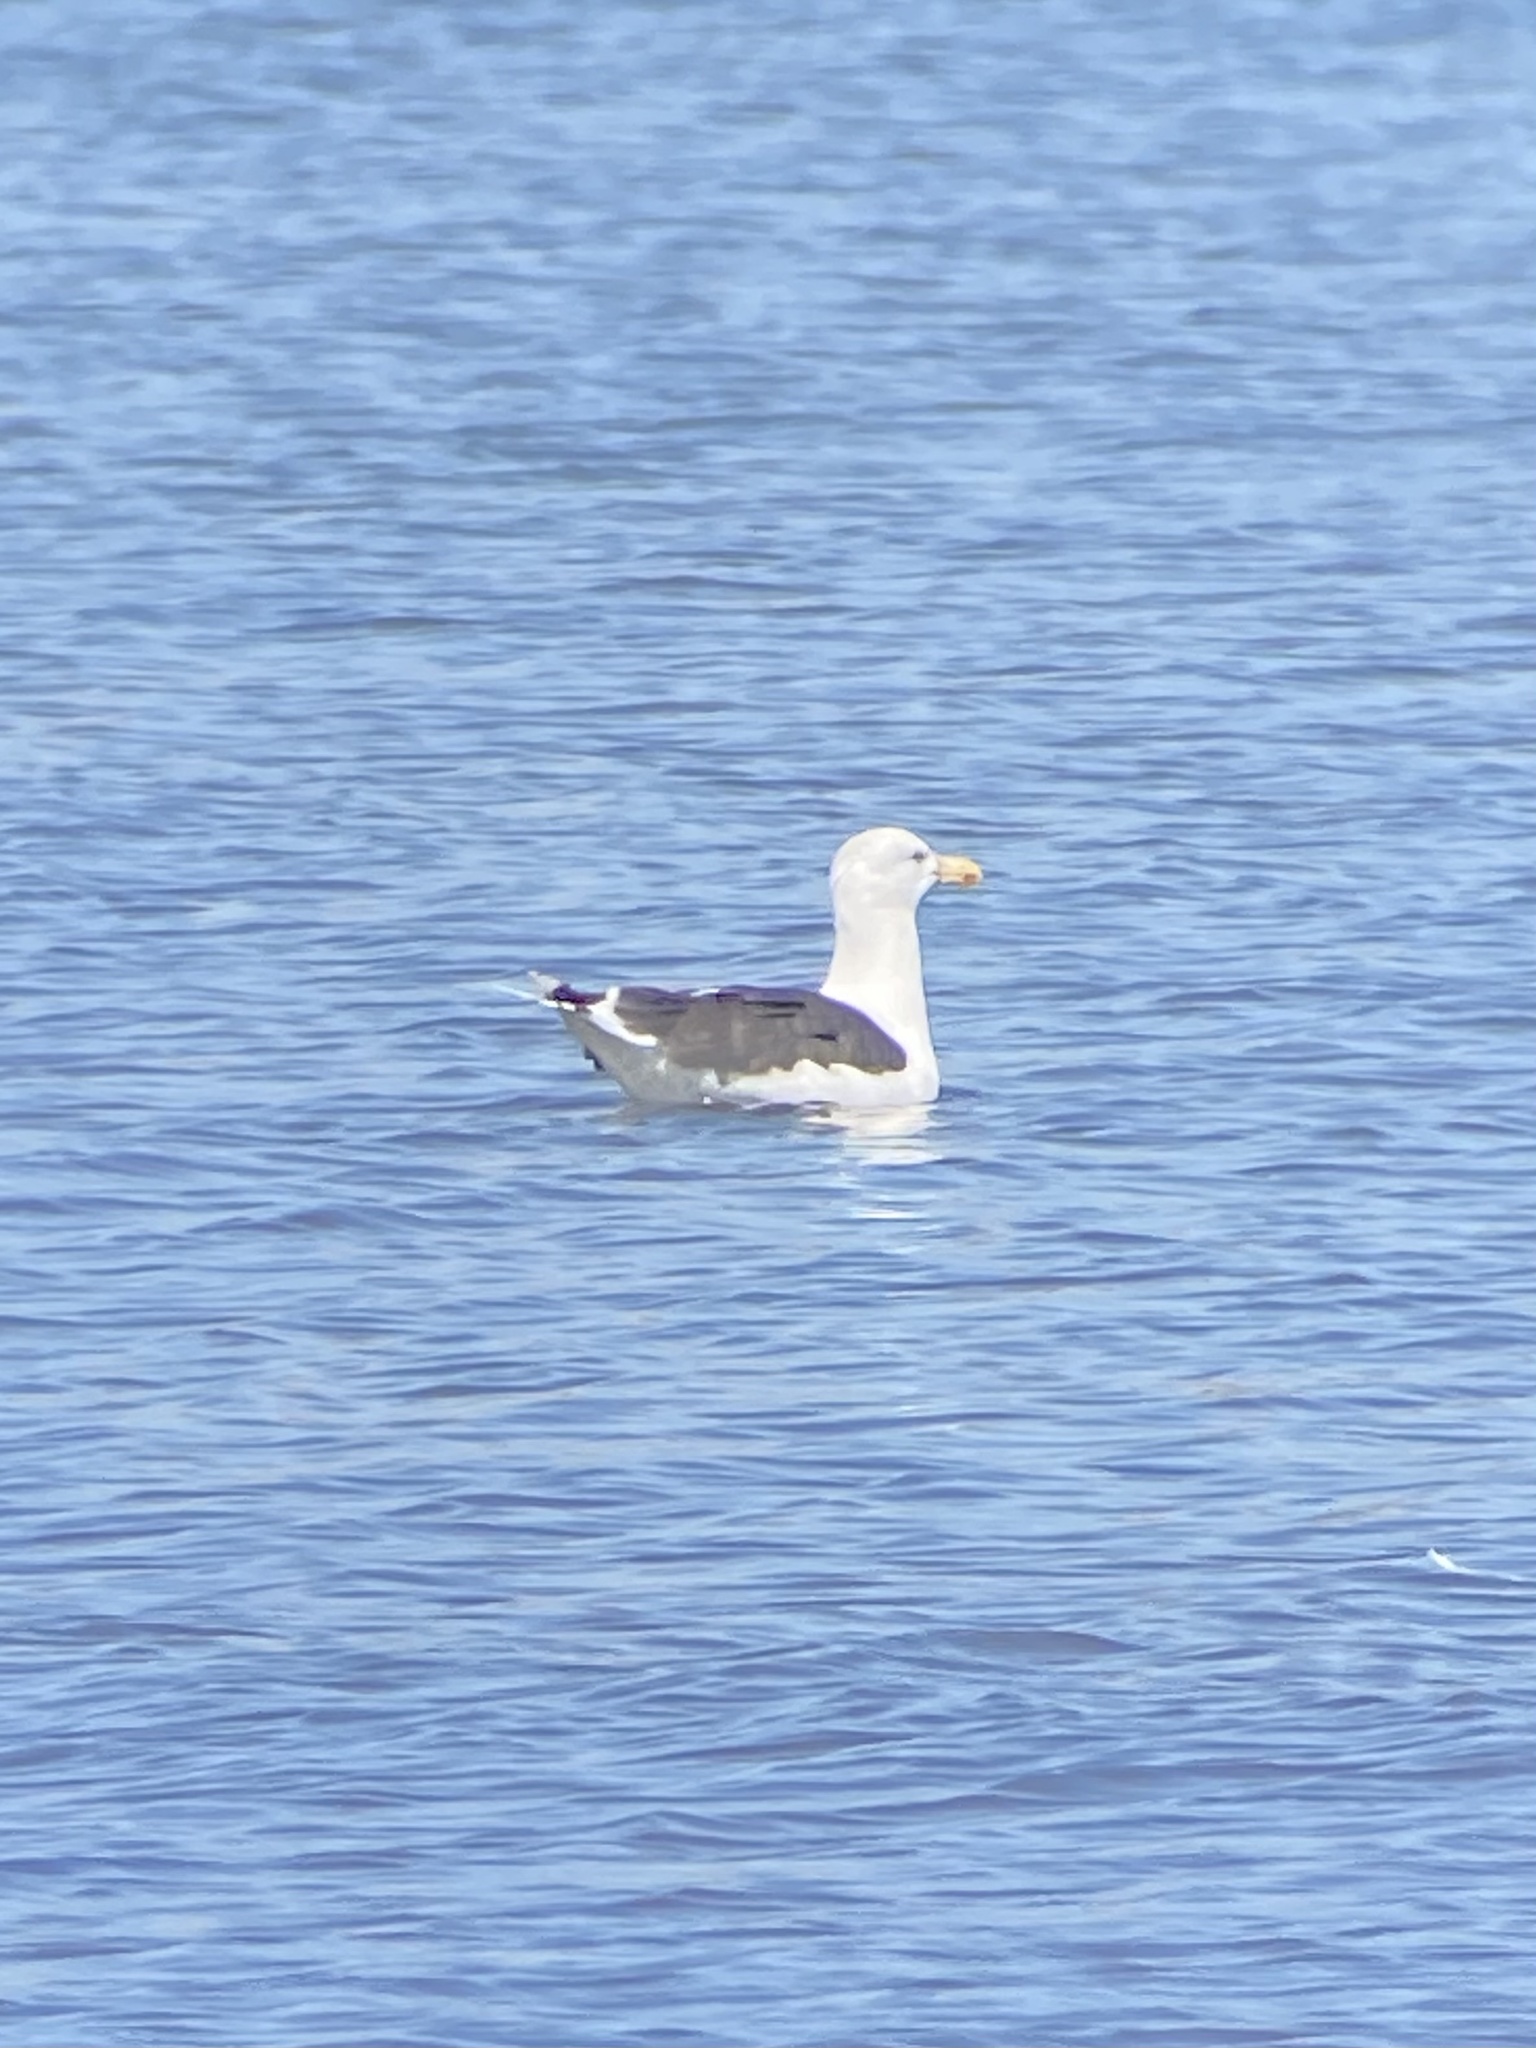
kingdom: Animalia
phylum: Chordata
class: Aves
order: Charadriiformes
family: Laridae
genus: Larus
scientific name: Larus marinus
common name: Great black-backed gull
